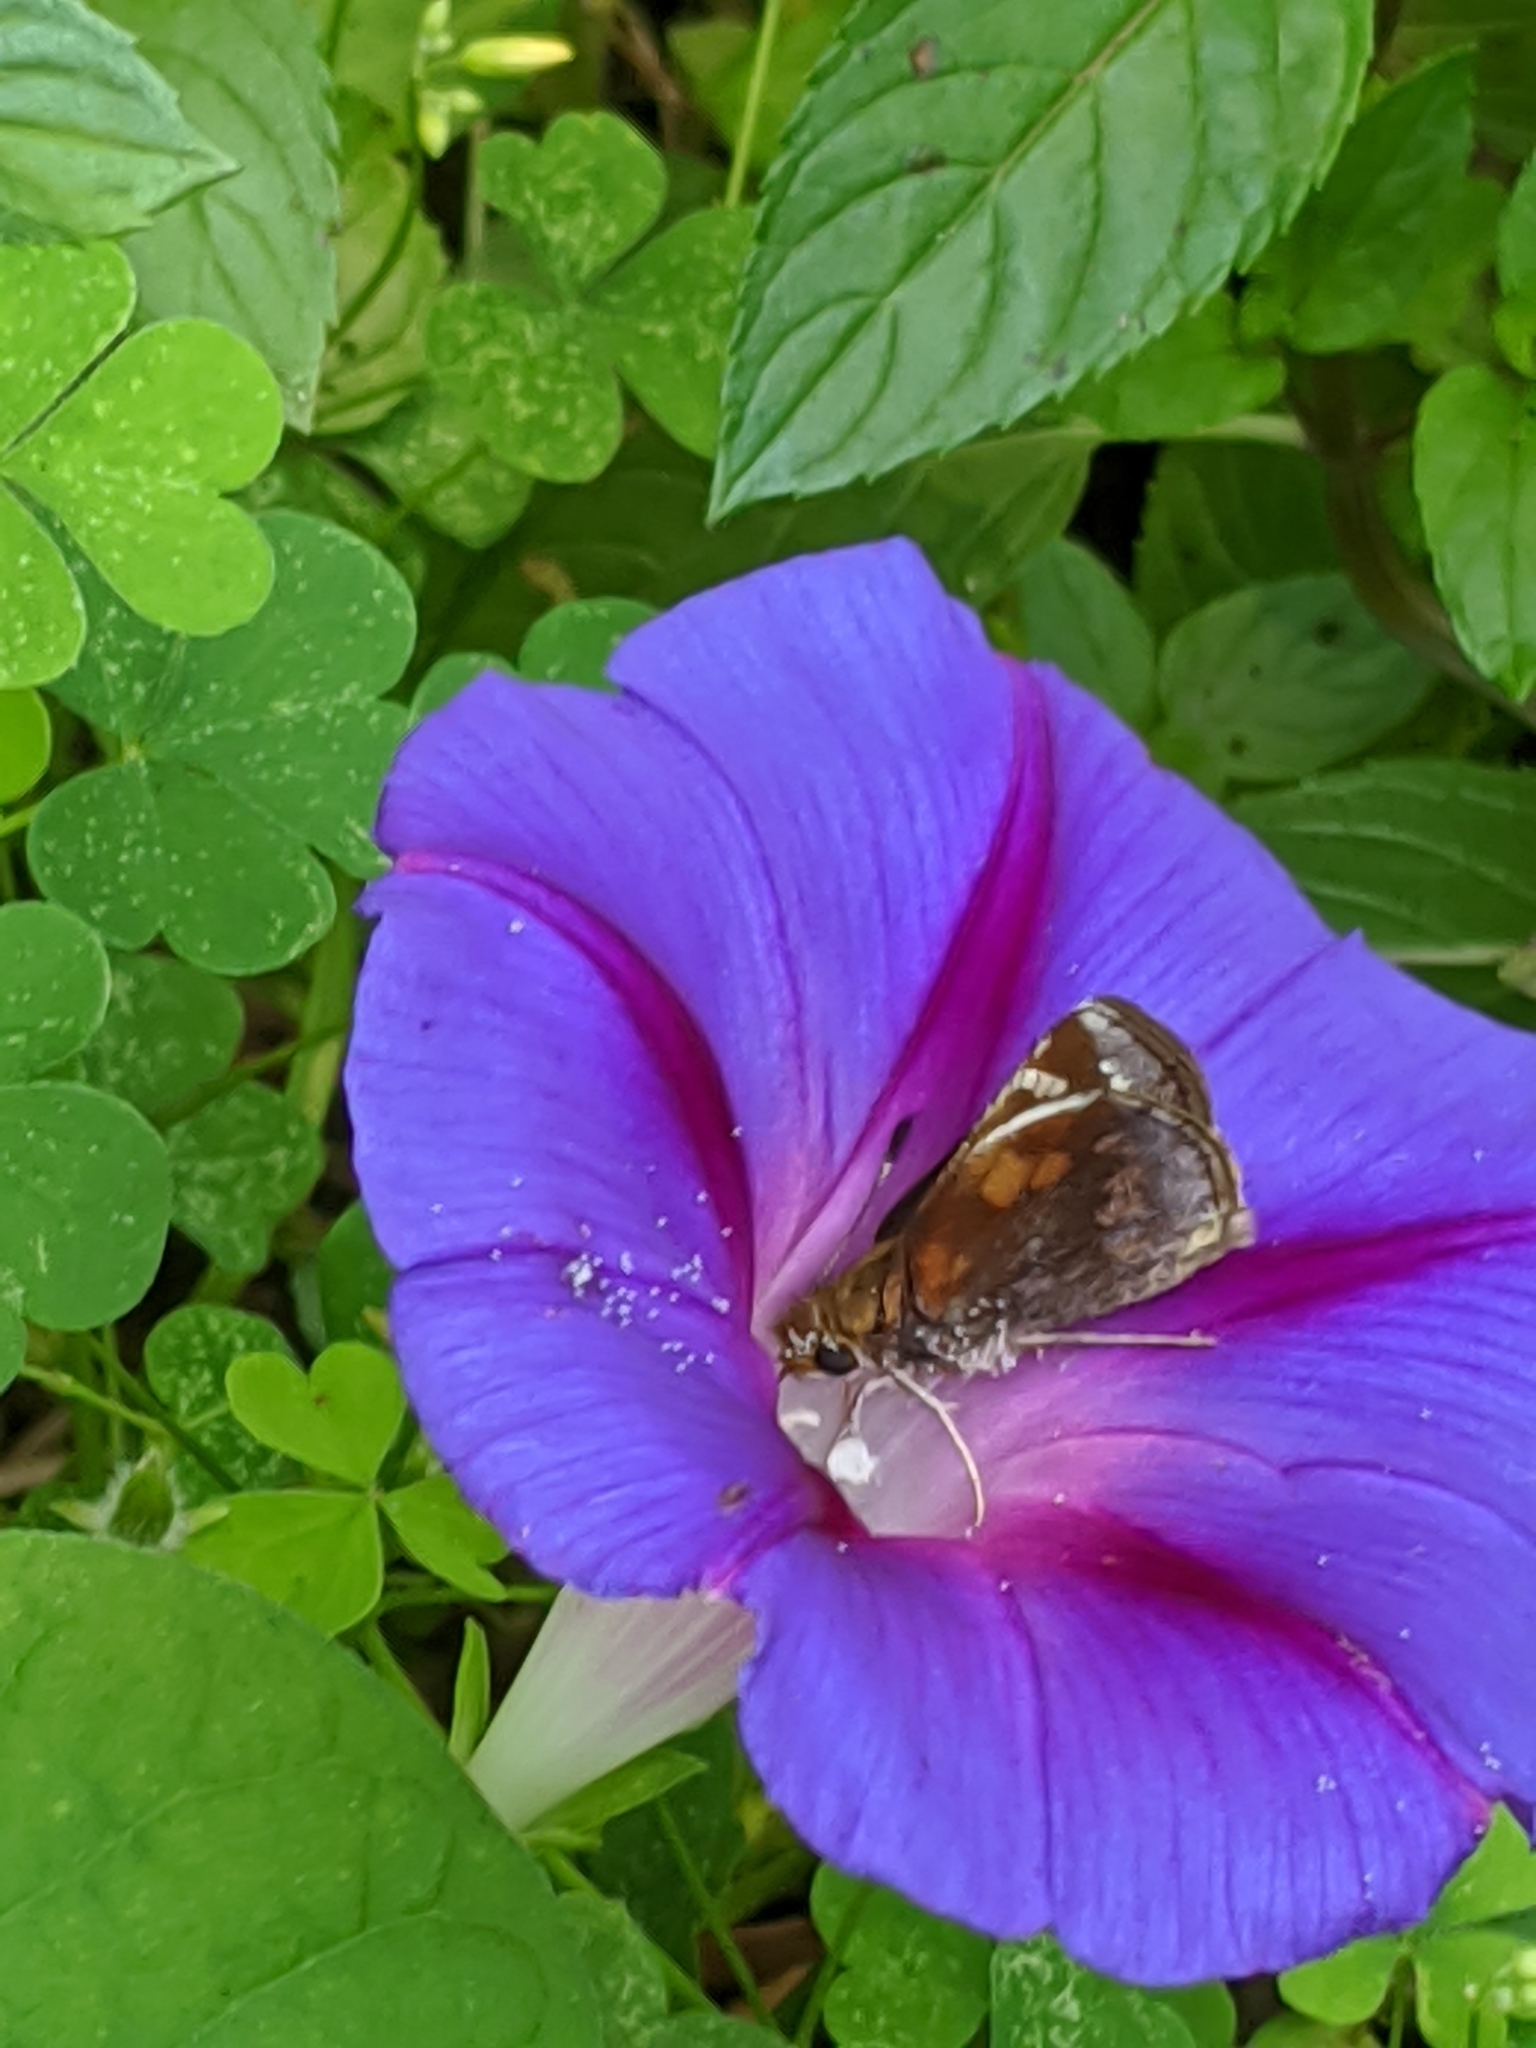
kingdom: Animalia
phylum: Arthropoda
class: Insecta
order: Lepidoptera
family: Hesperiidae
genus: Lon
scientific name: Lon zabulon
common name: Zabulon skipper
